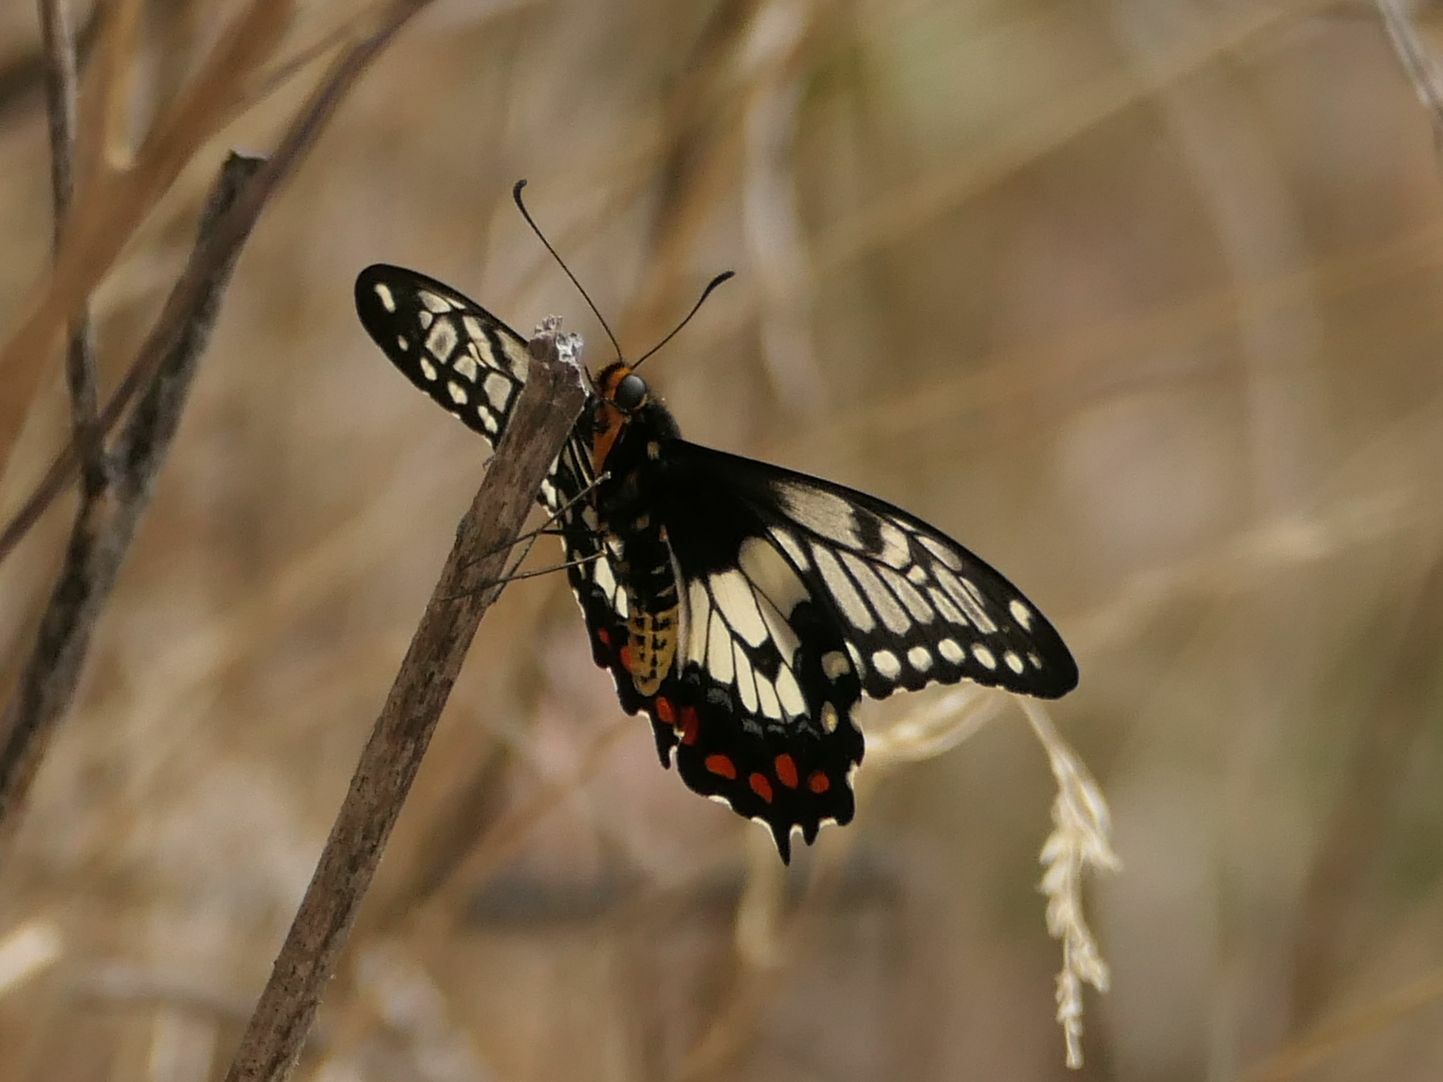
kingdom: Animalia
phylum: Arthropoda
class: Insecta
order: Lepidoptera
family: Papilionidae
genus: Papilio
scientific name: Papilio anactus
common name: Dingy swallowtail
